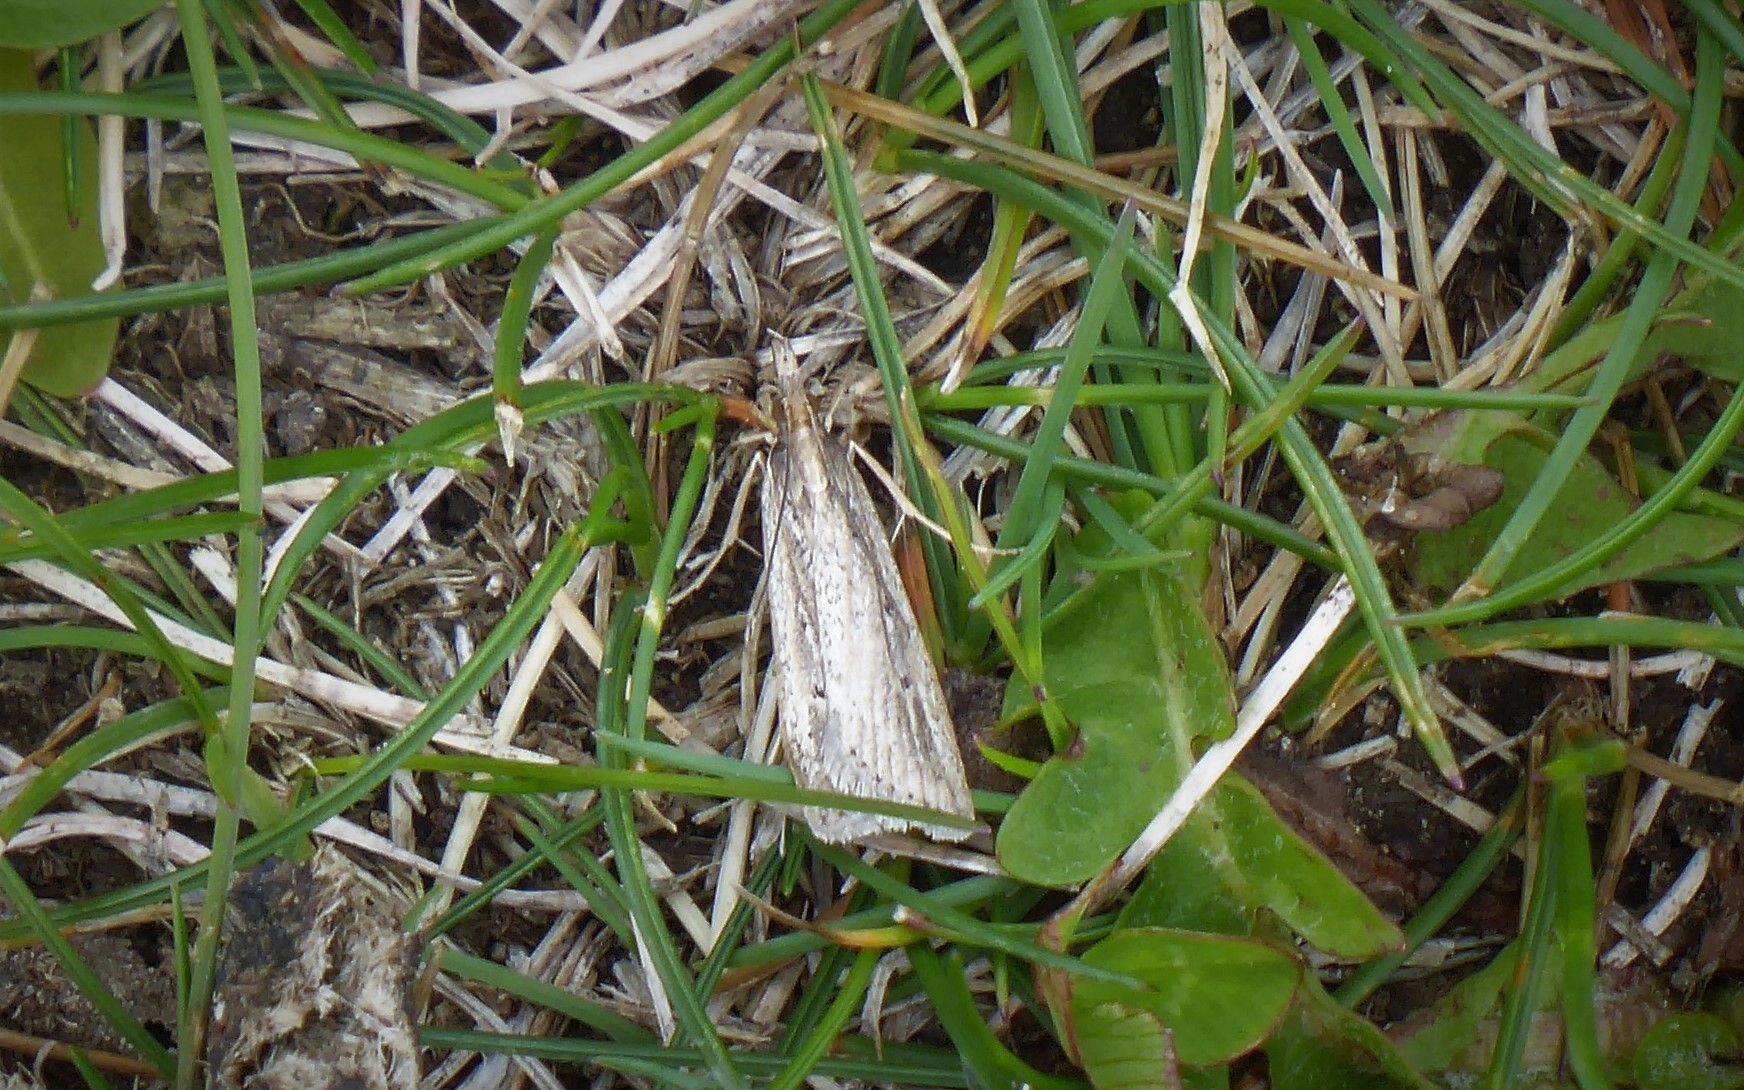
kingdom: Animalia
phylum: Arthropoda
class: Insecta
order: Lepidoptera
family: Crambidae
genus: Eudonia
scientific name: Eudonia sabulosella
